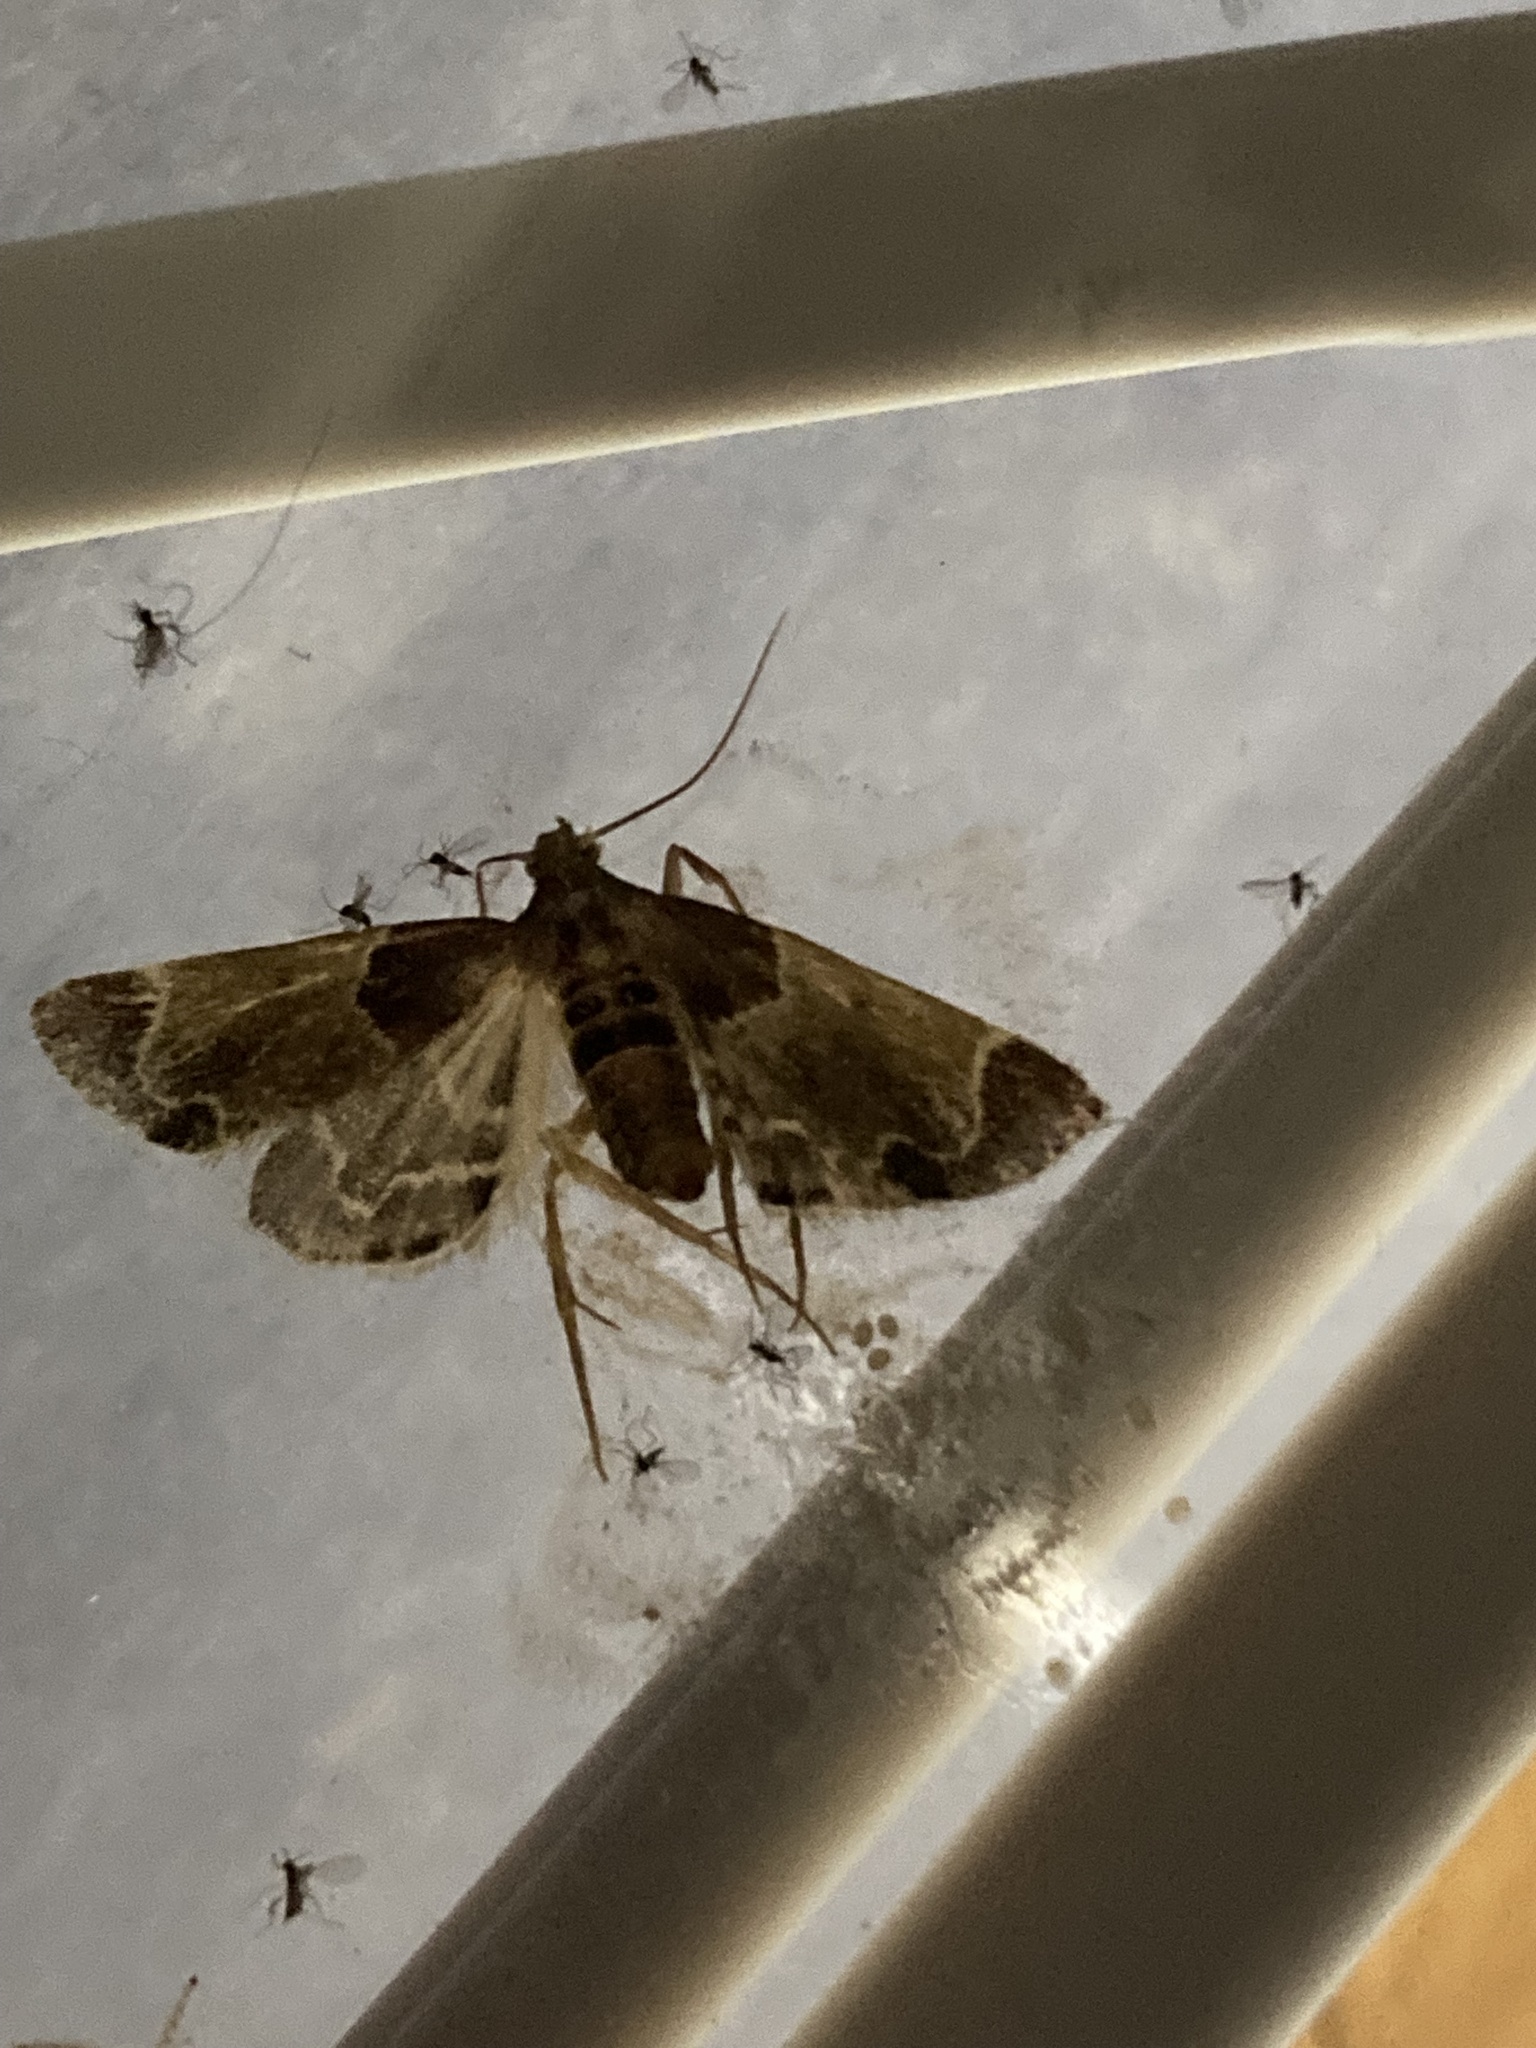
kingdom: Animalia
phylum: Arthropoda
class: Insecta
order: Lepidoptera
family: Pyralidae
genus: Pyralis
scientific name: Pyralis farinalis
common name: Meal moth
